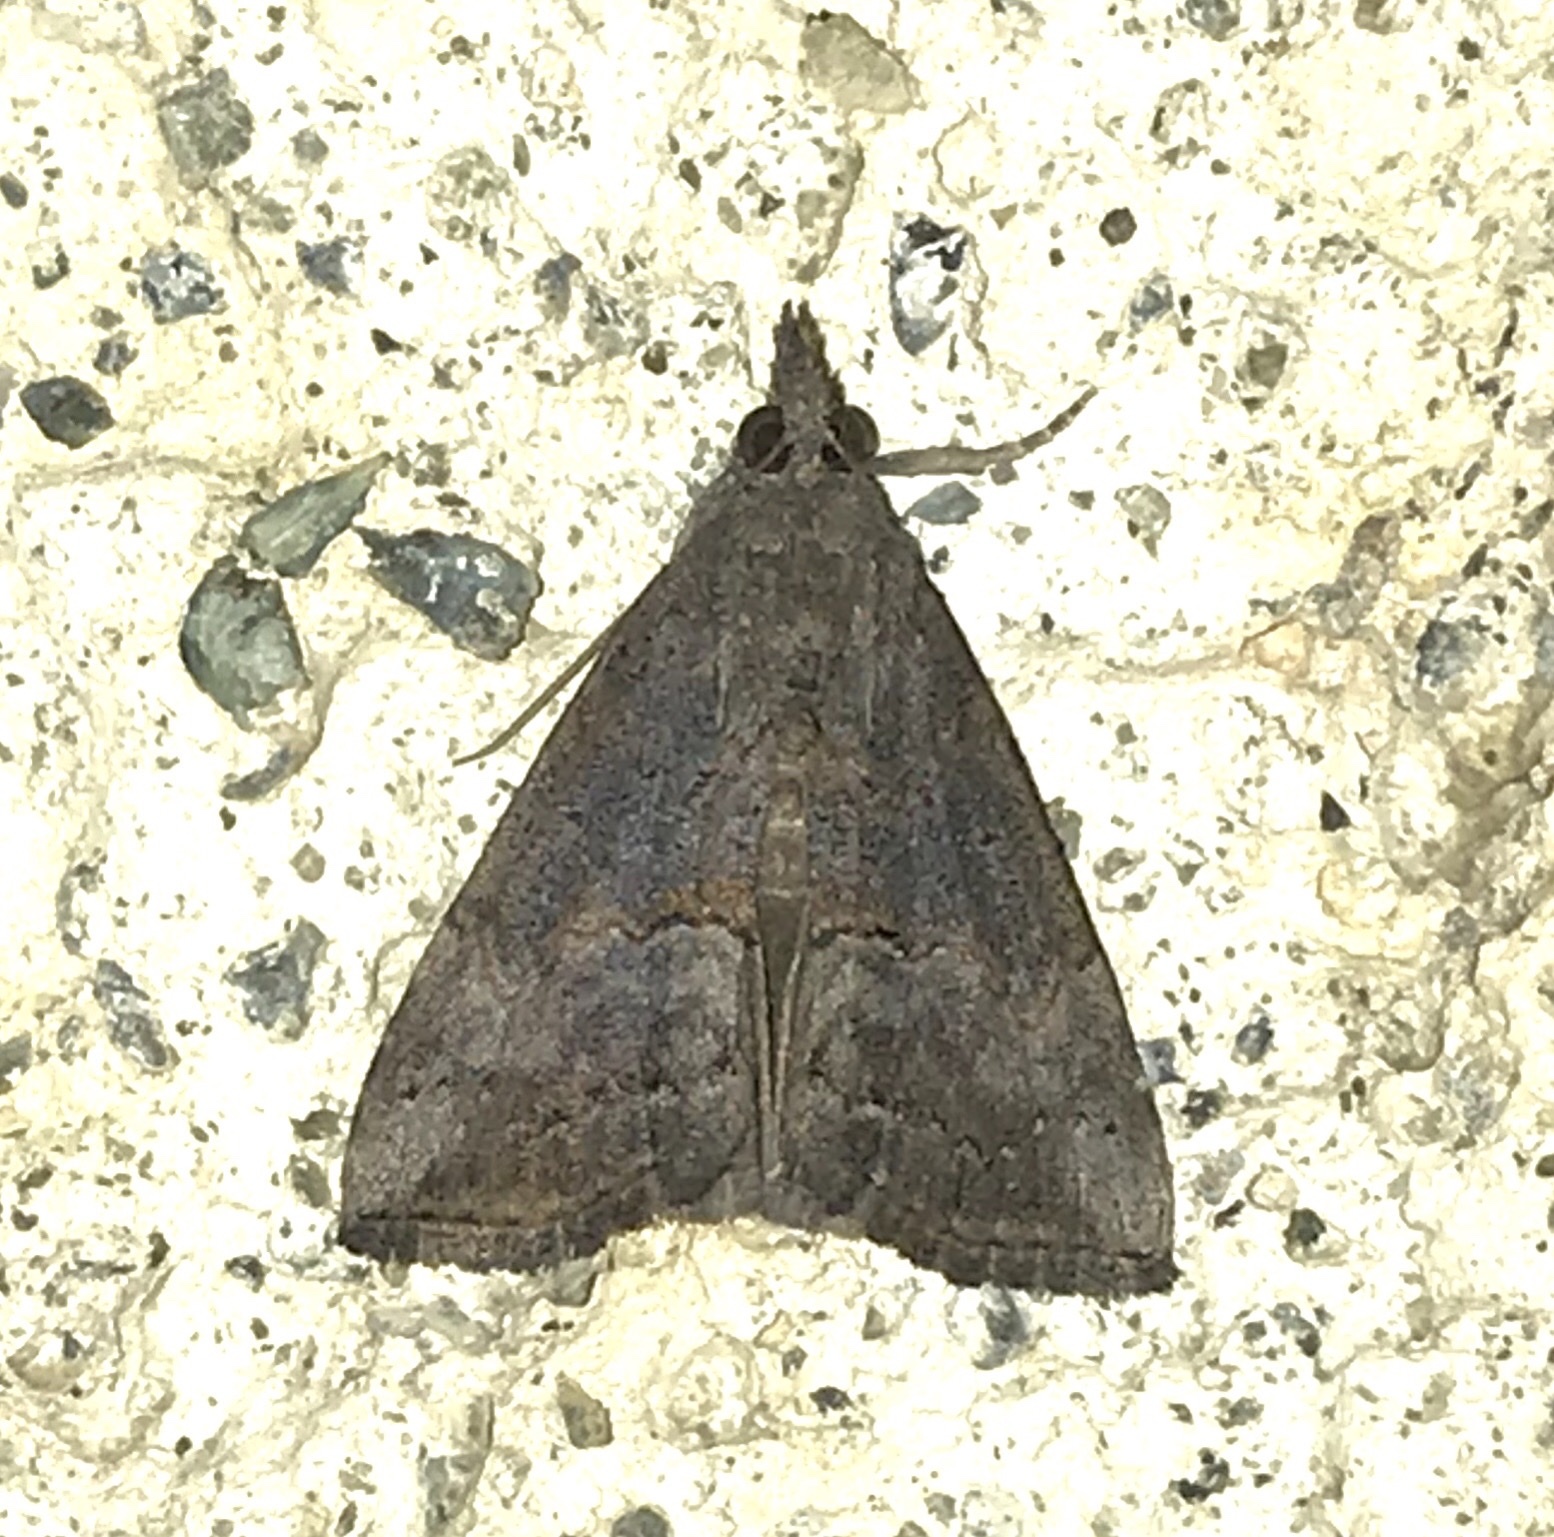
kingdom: Animalia
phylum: Arthropoda
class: Insecta
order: Lepidoptera
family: Erebidae
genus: Hypena
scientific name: Hypena scabra
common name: Green cloverworm
